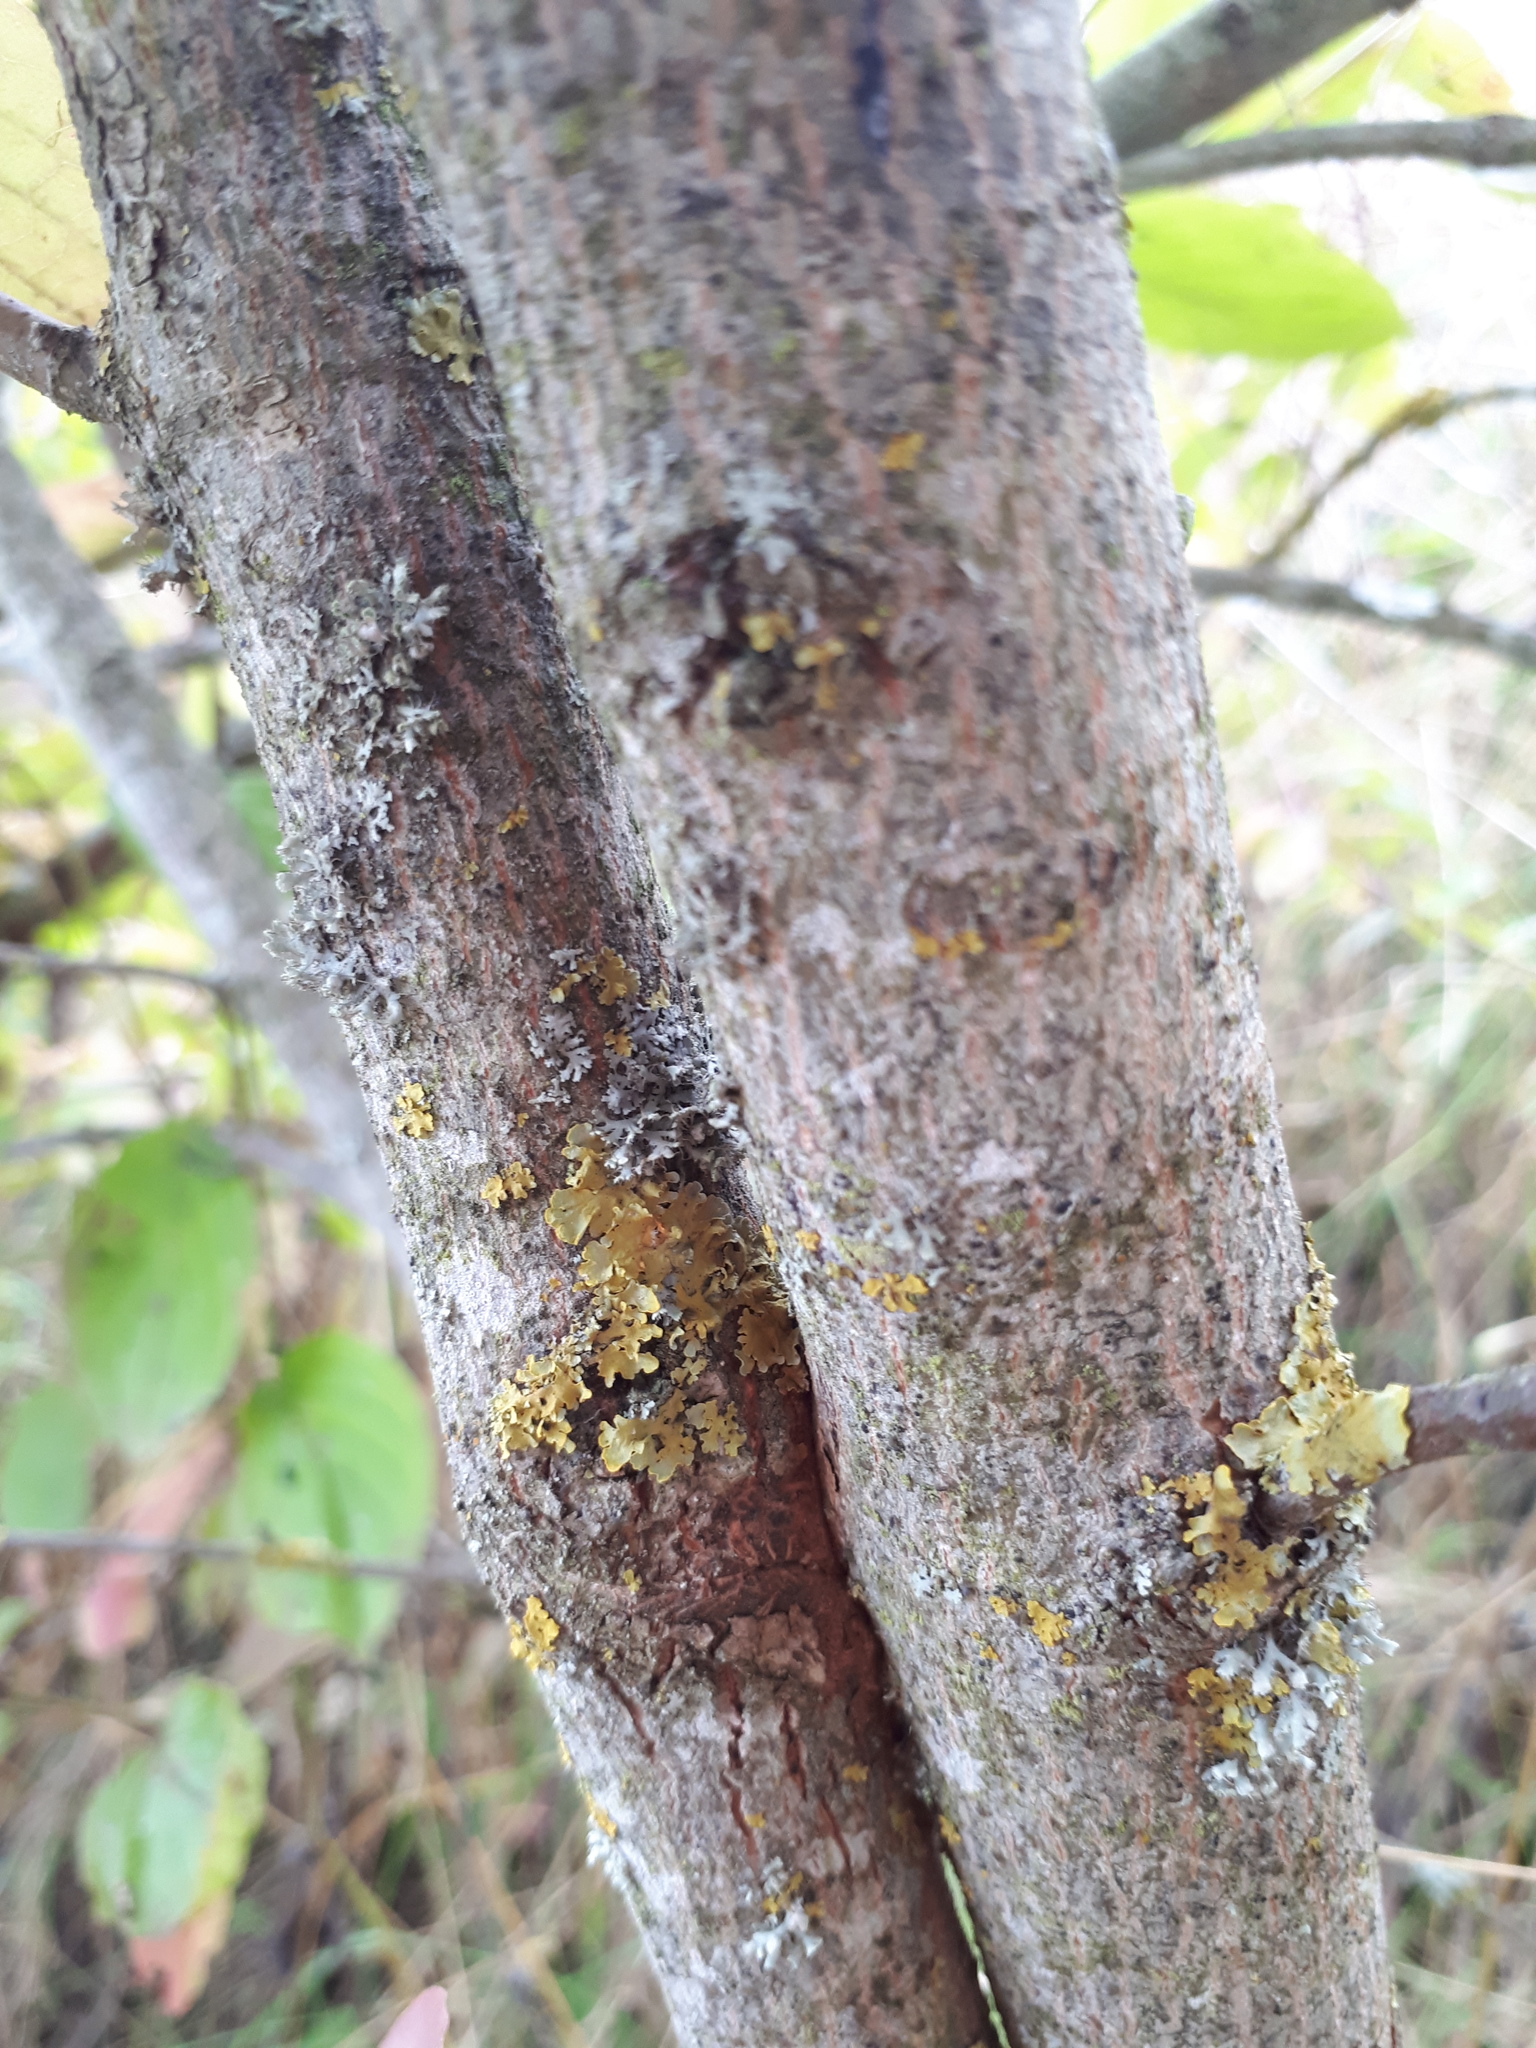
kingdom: Fungi
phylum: Ascomycota
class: Lecanoromycetes
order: Teloschistales
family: Teloschistaceae
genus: Xanthoria
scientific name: Xanthoria parietina
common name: Common orange lichen
